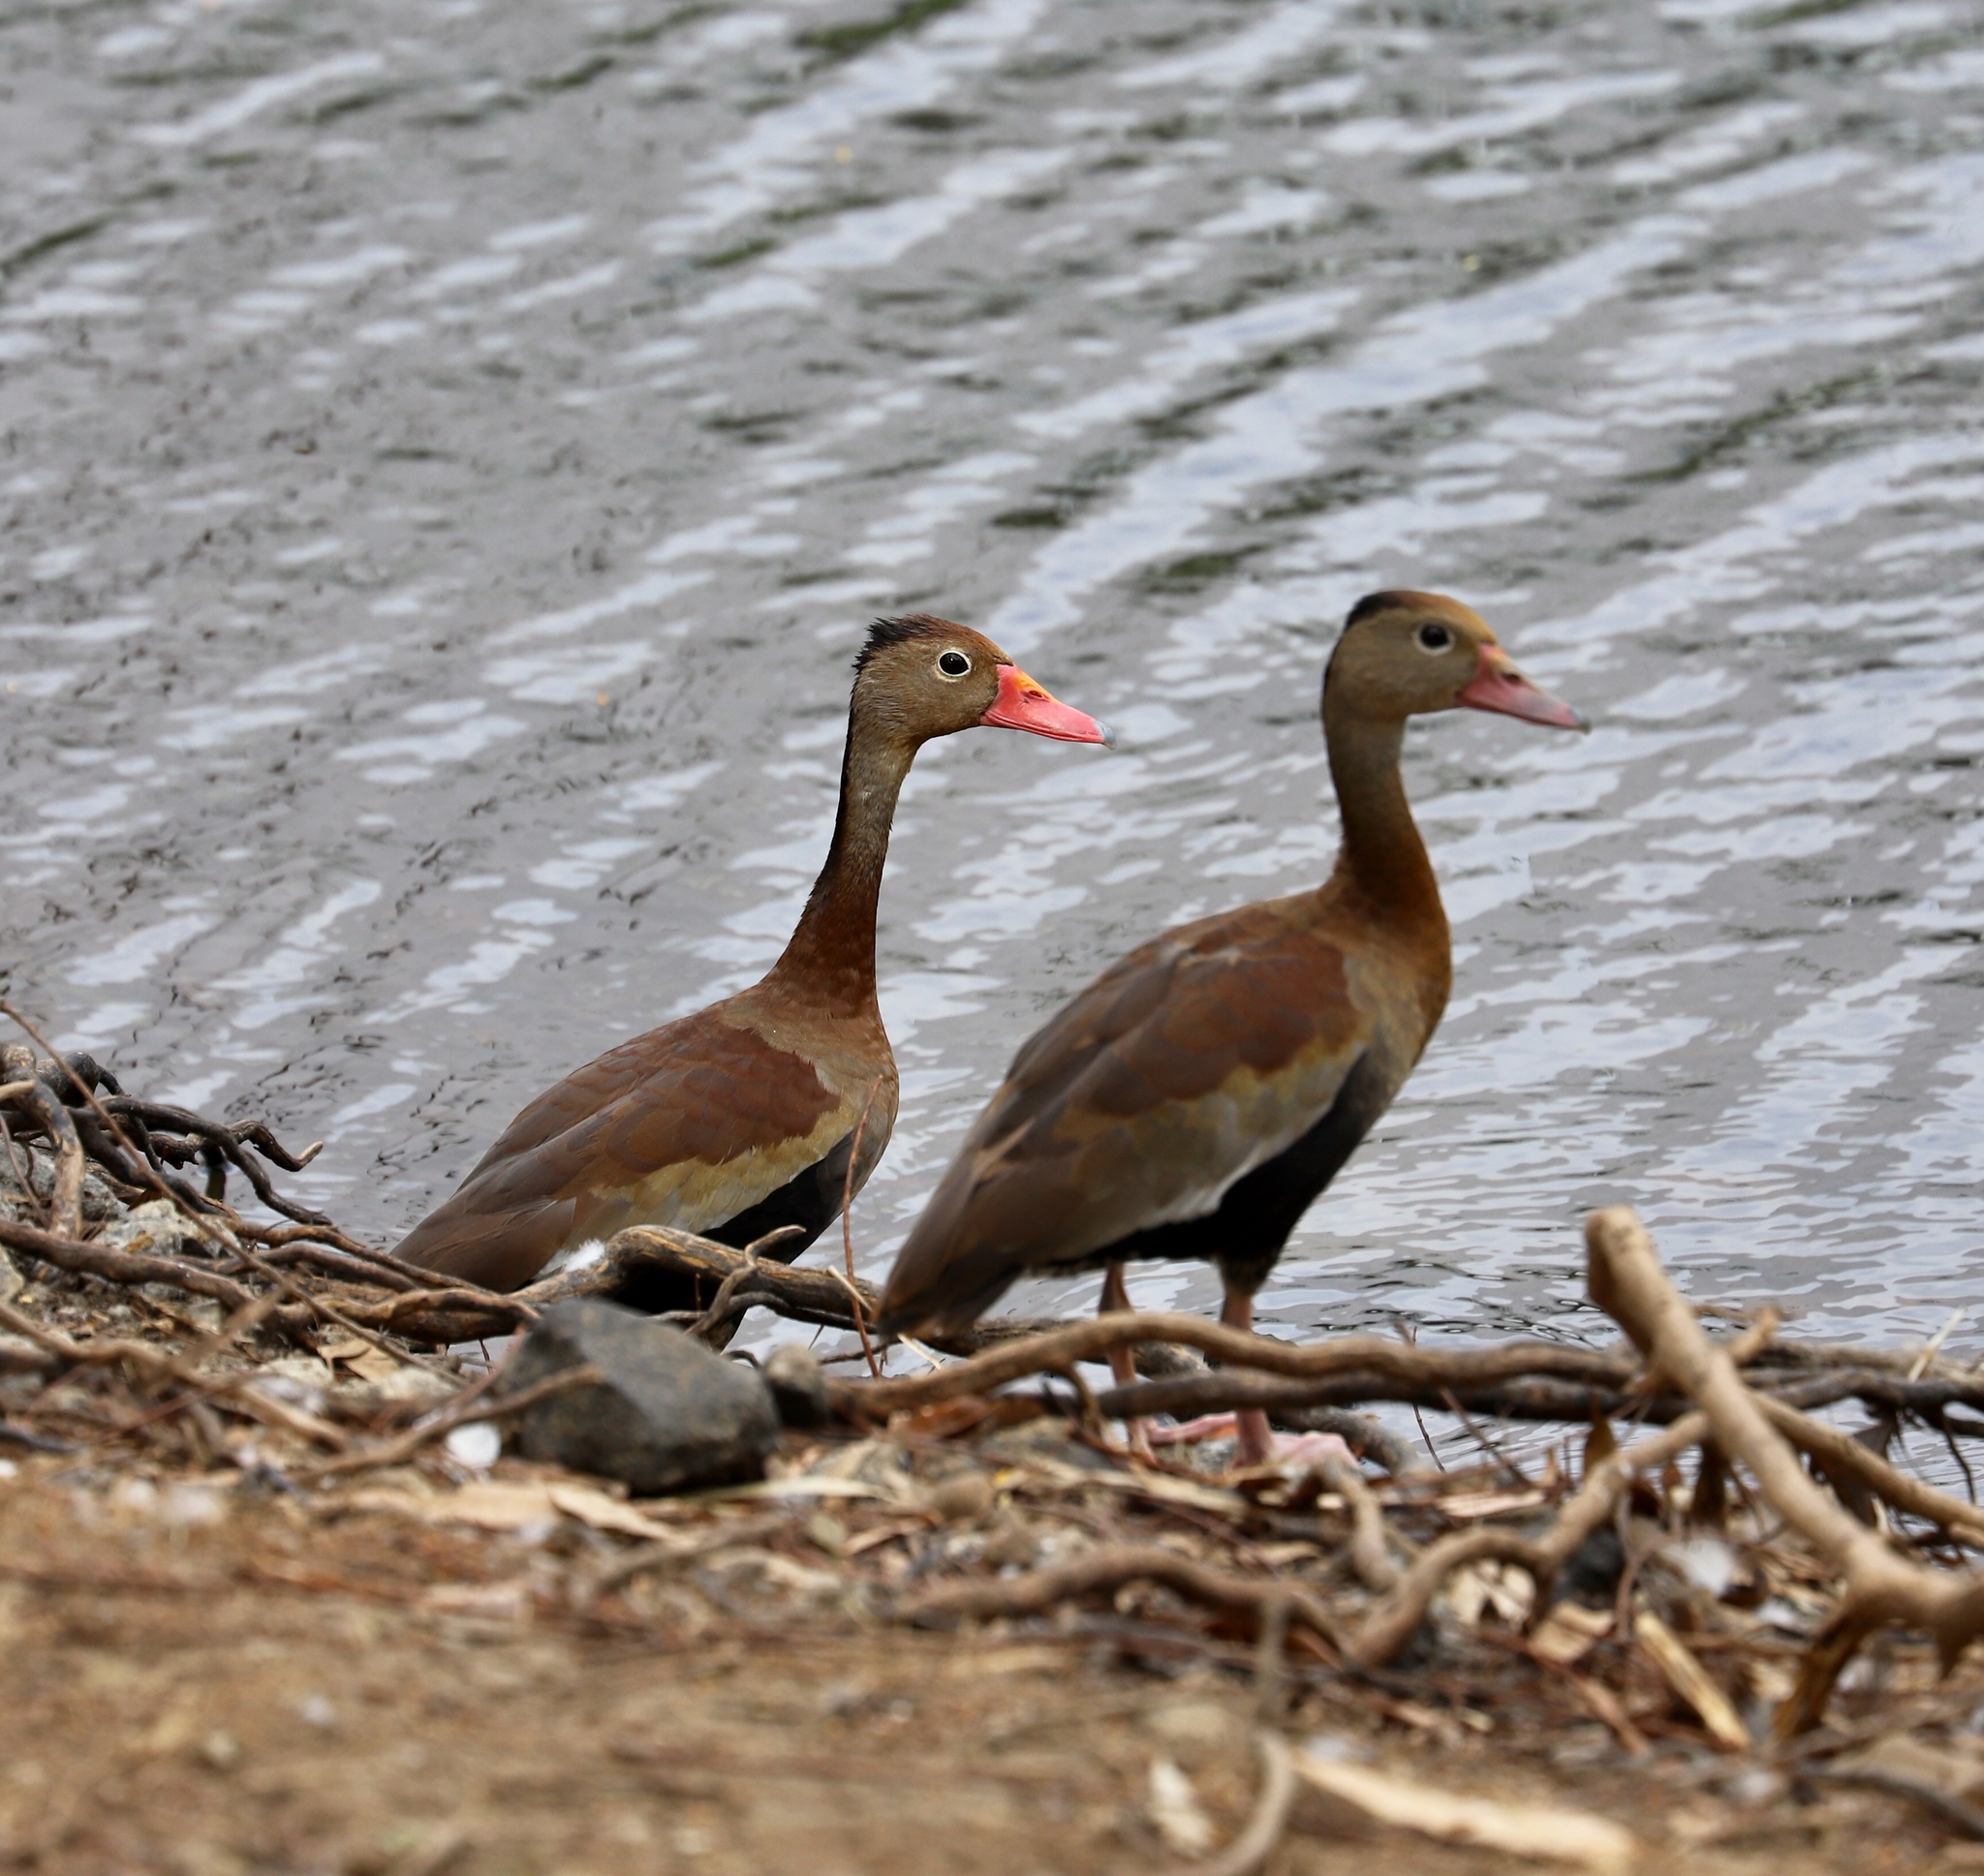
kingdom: Animalia
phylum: Chordata
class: Aves
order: Anseriformes
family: Anatidae
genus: Dendrocygna
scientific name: Dendrocygna autumnalis
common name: Black-bellied whistling duck
